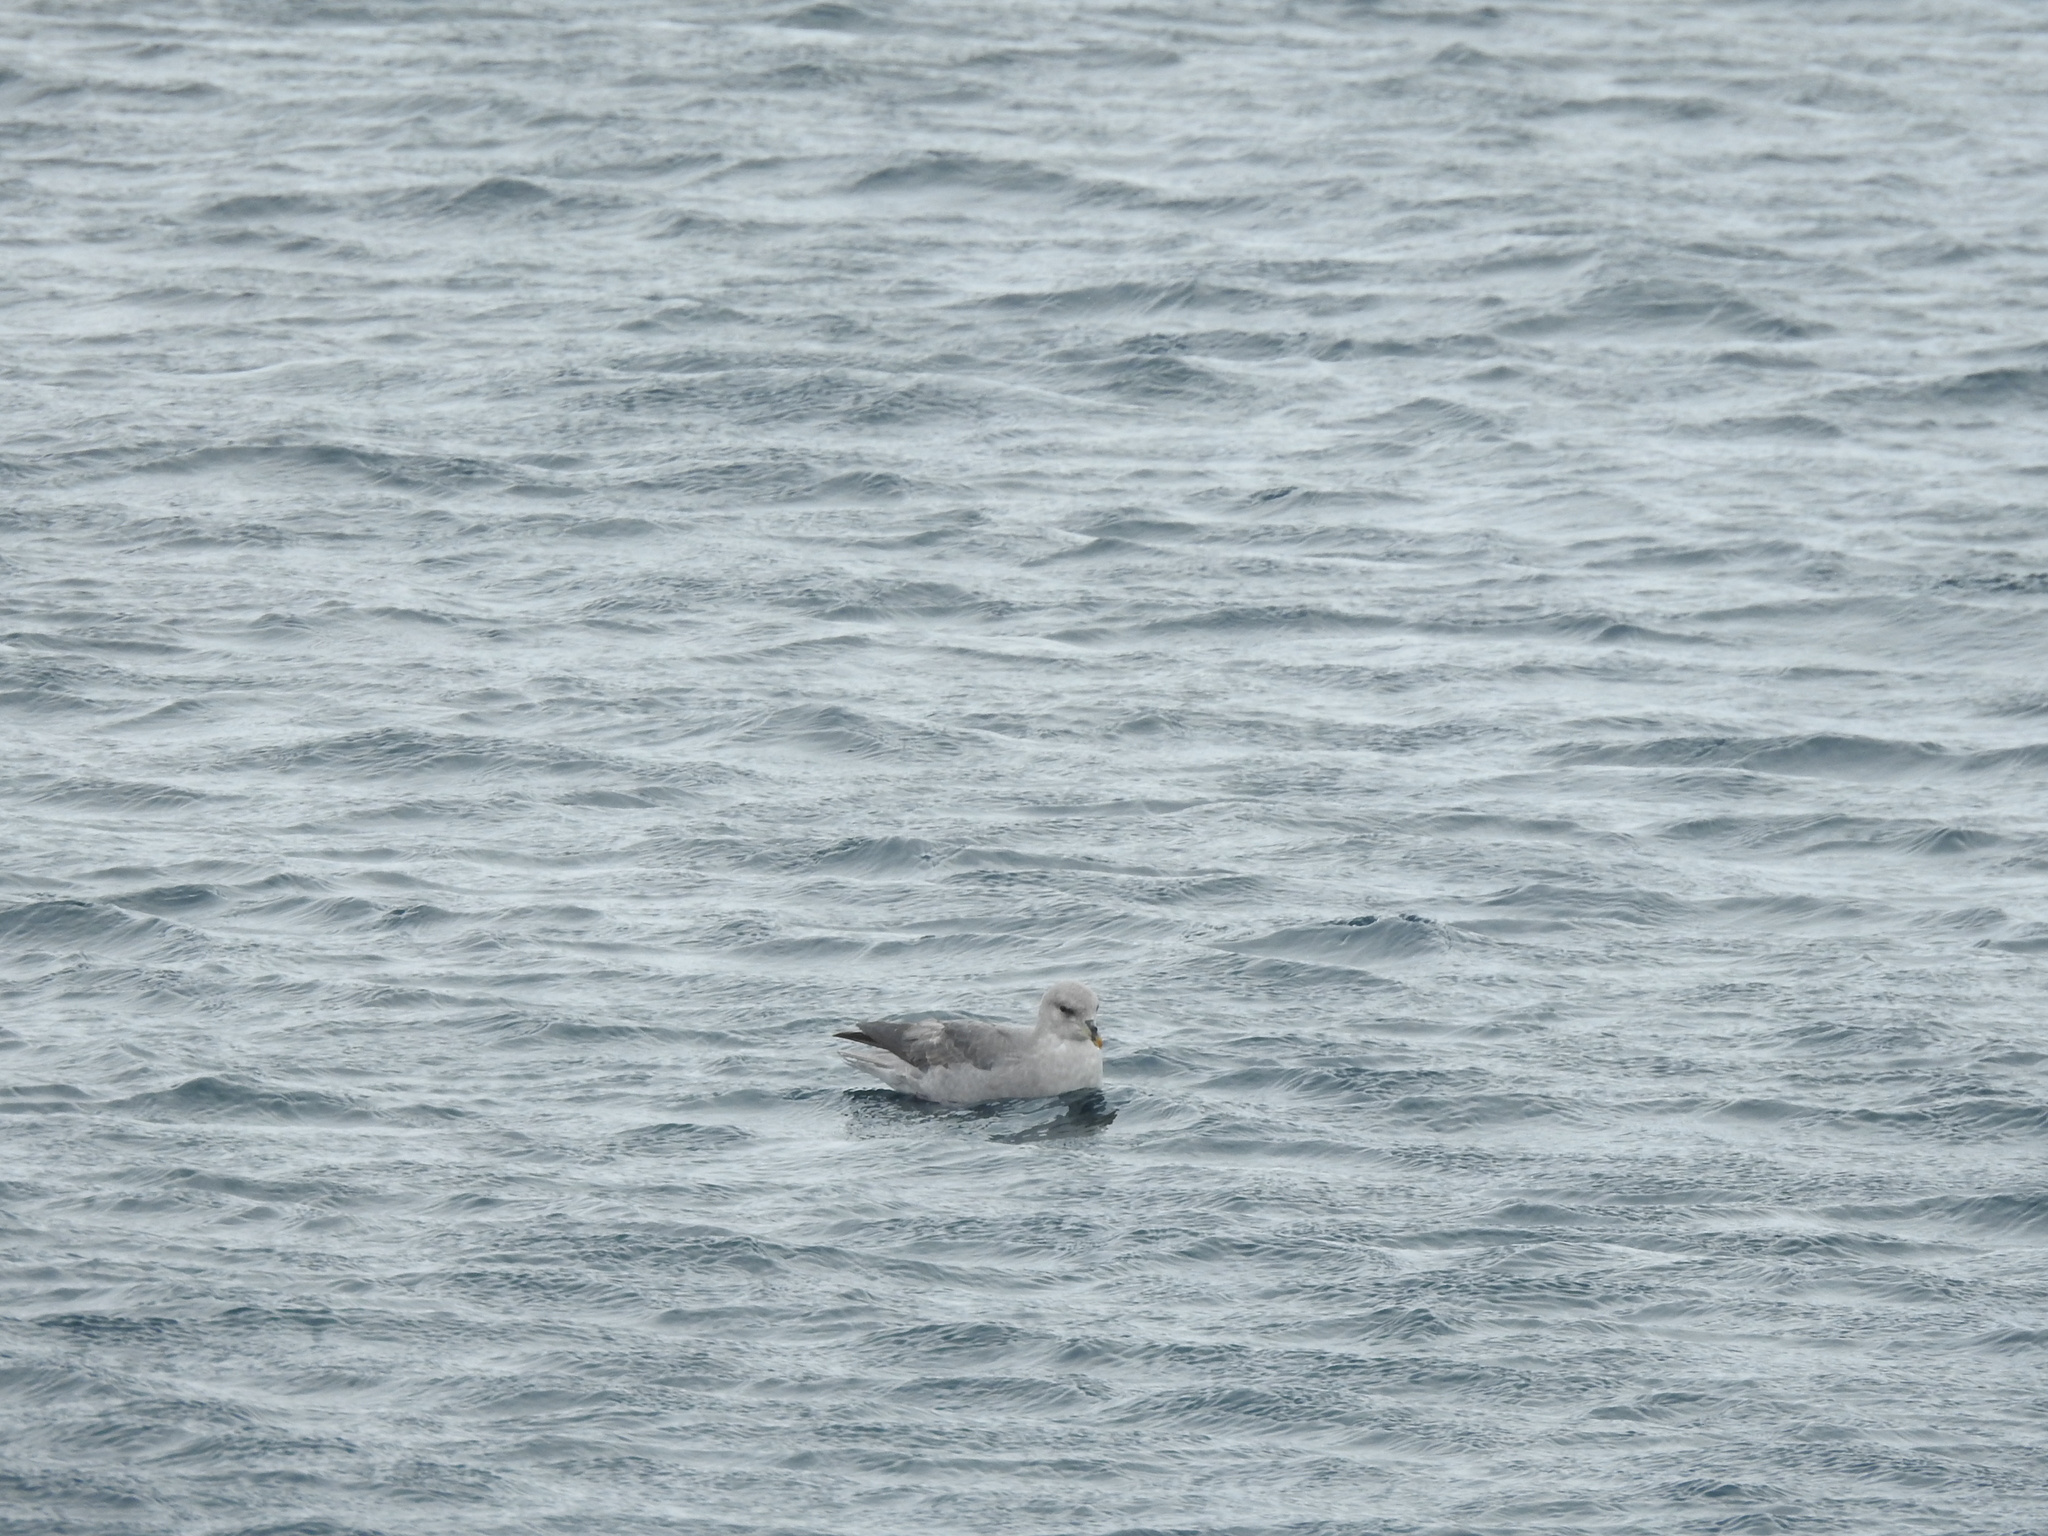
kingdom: Animalia
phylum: Chordata
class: Aves
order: Procellariiformes
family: Procellariidae
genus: Fulmarus
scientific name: Fulmarus glacialis
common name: Northern fulmar
